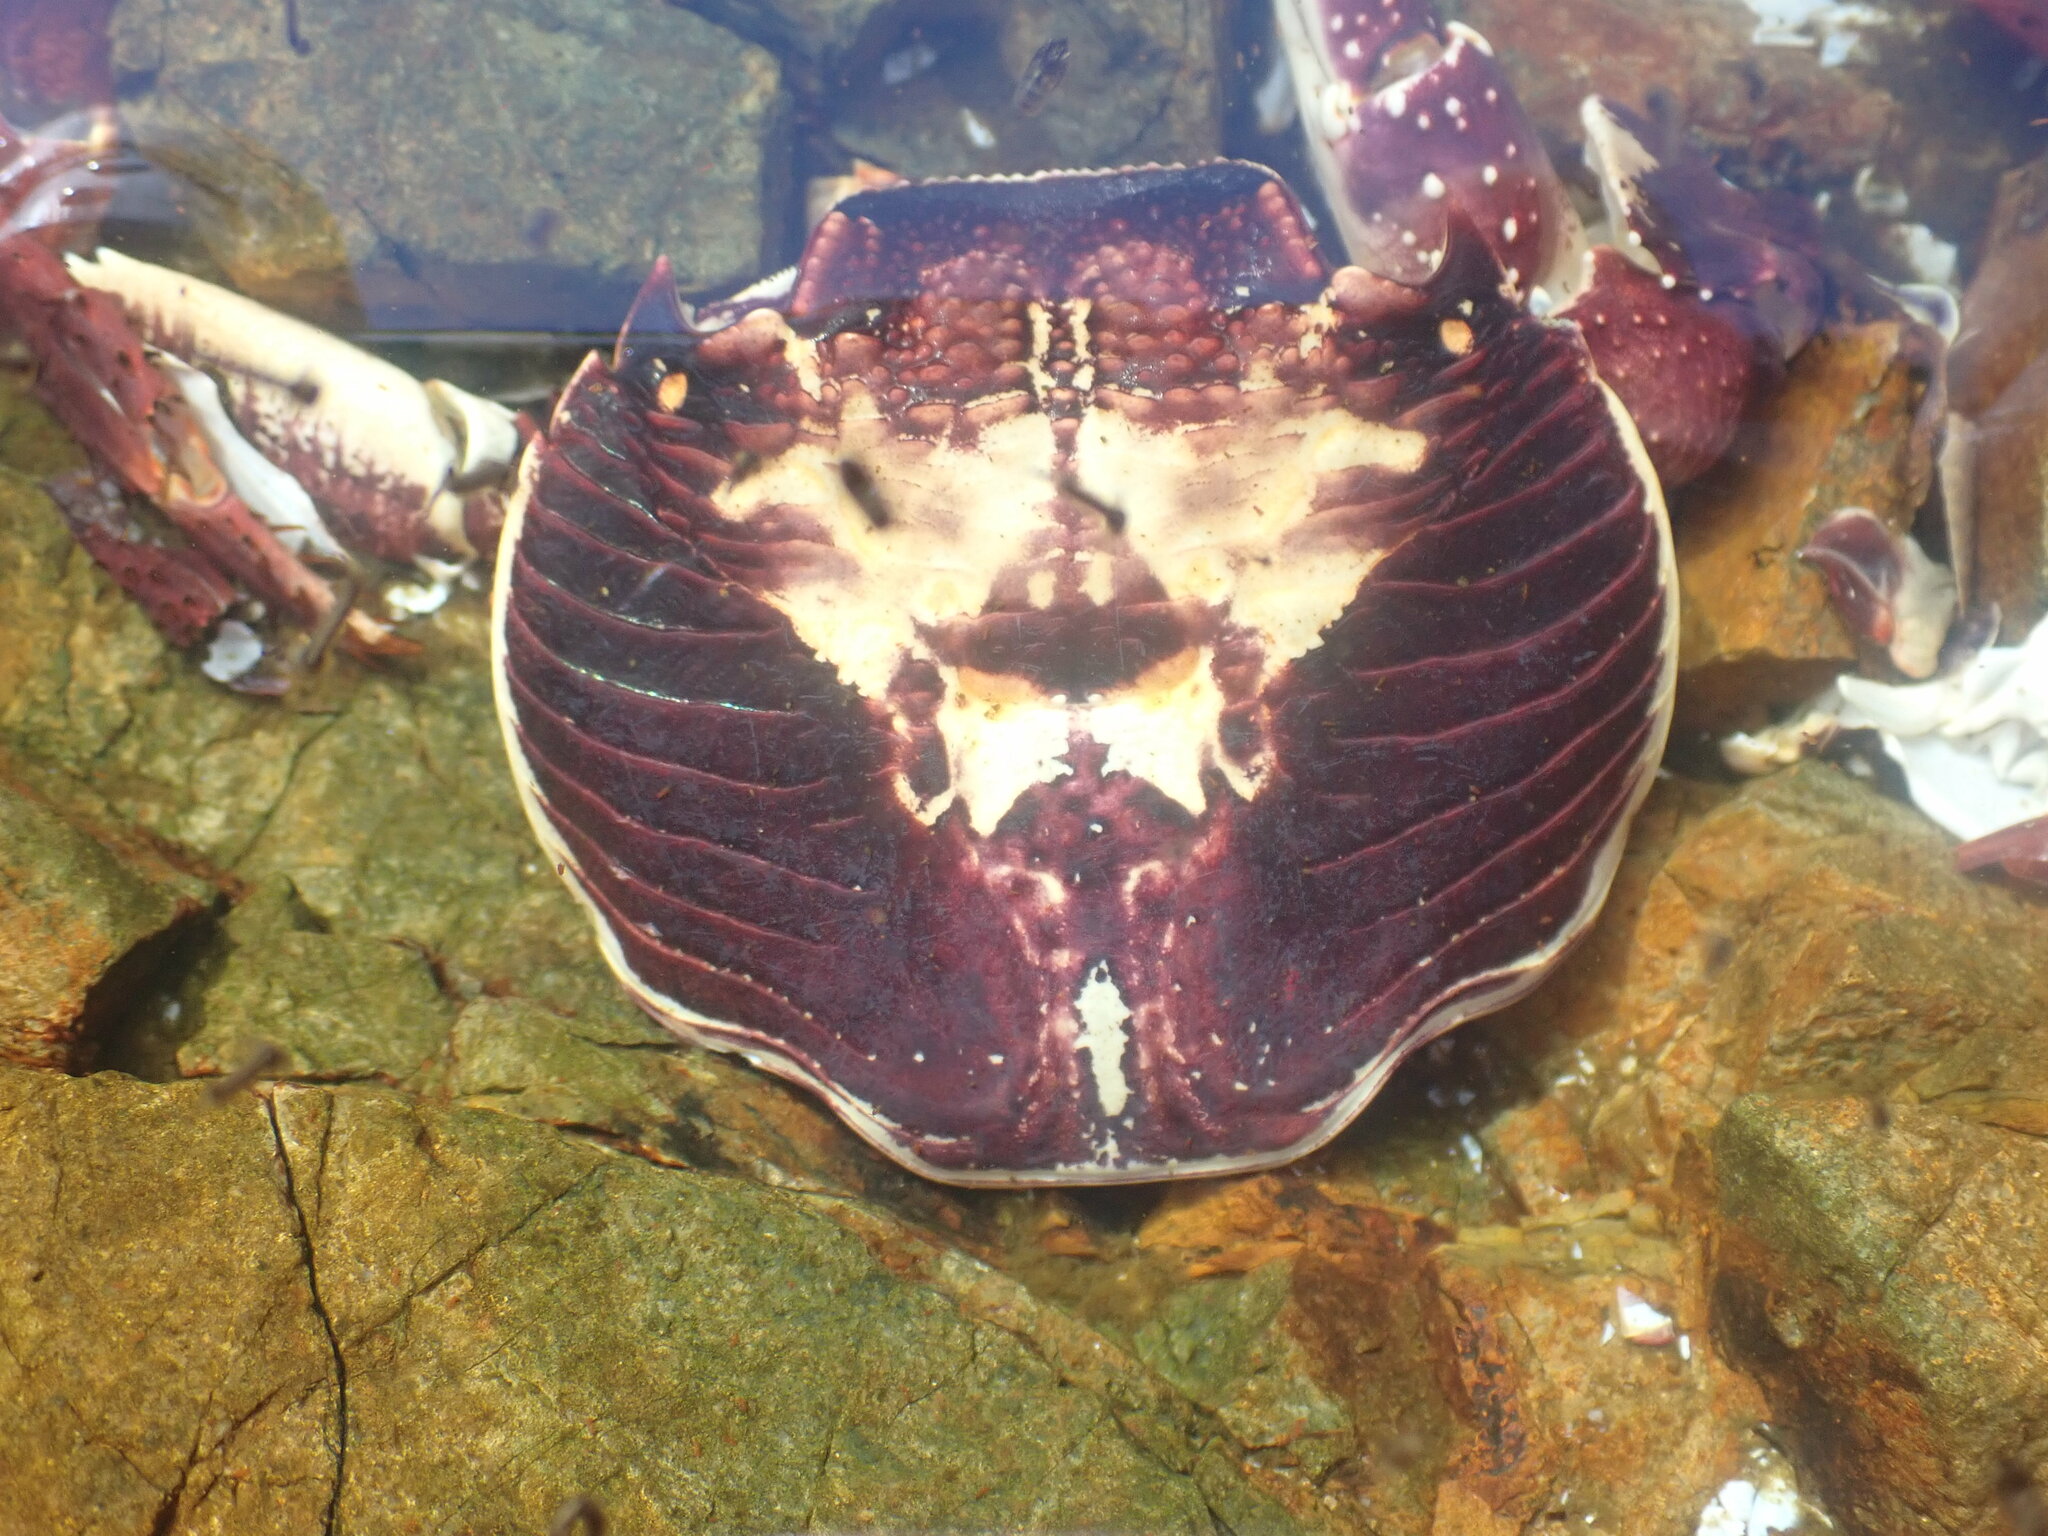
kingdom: Animalia
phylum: Arthropoda
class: Malacostraca
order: Decapoda
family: Grapsidae
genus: Leptograpsus
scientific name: Leptograpsus variegatus
